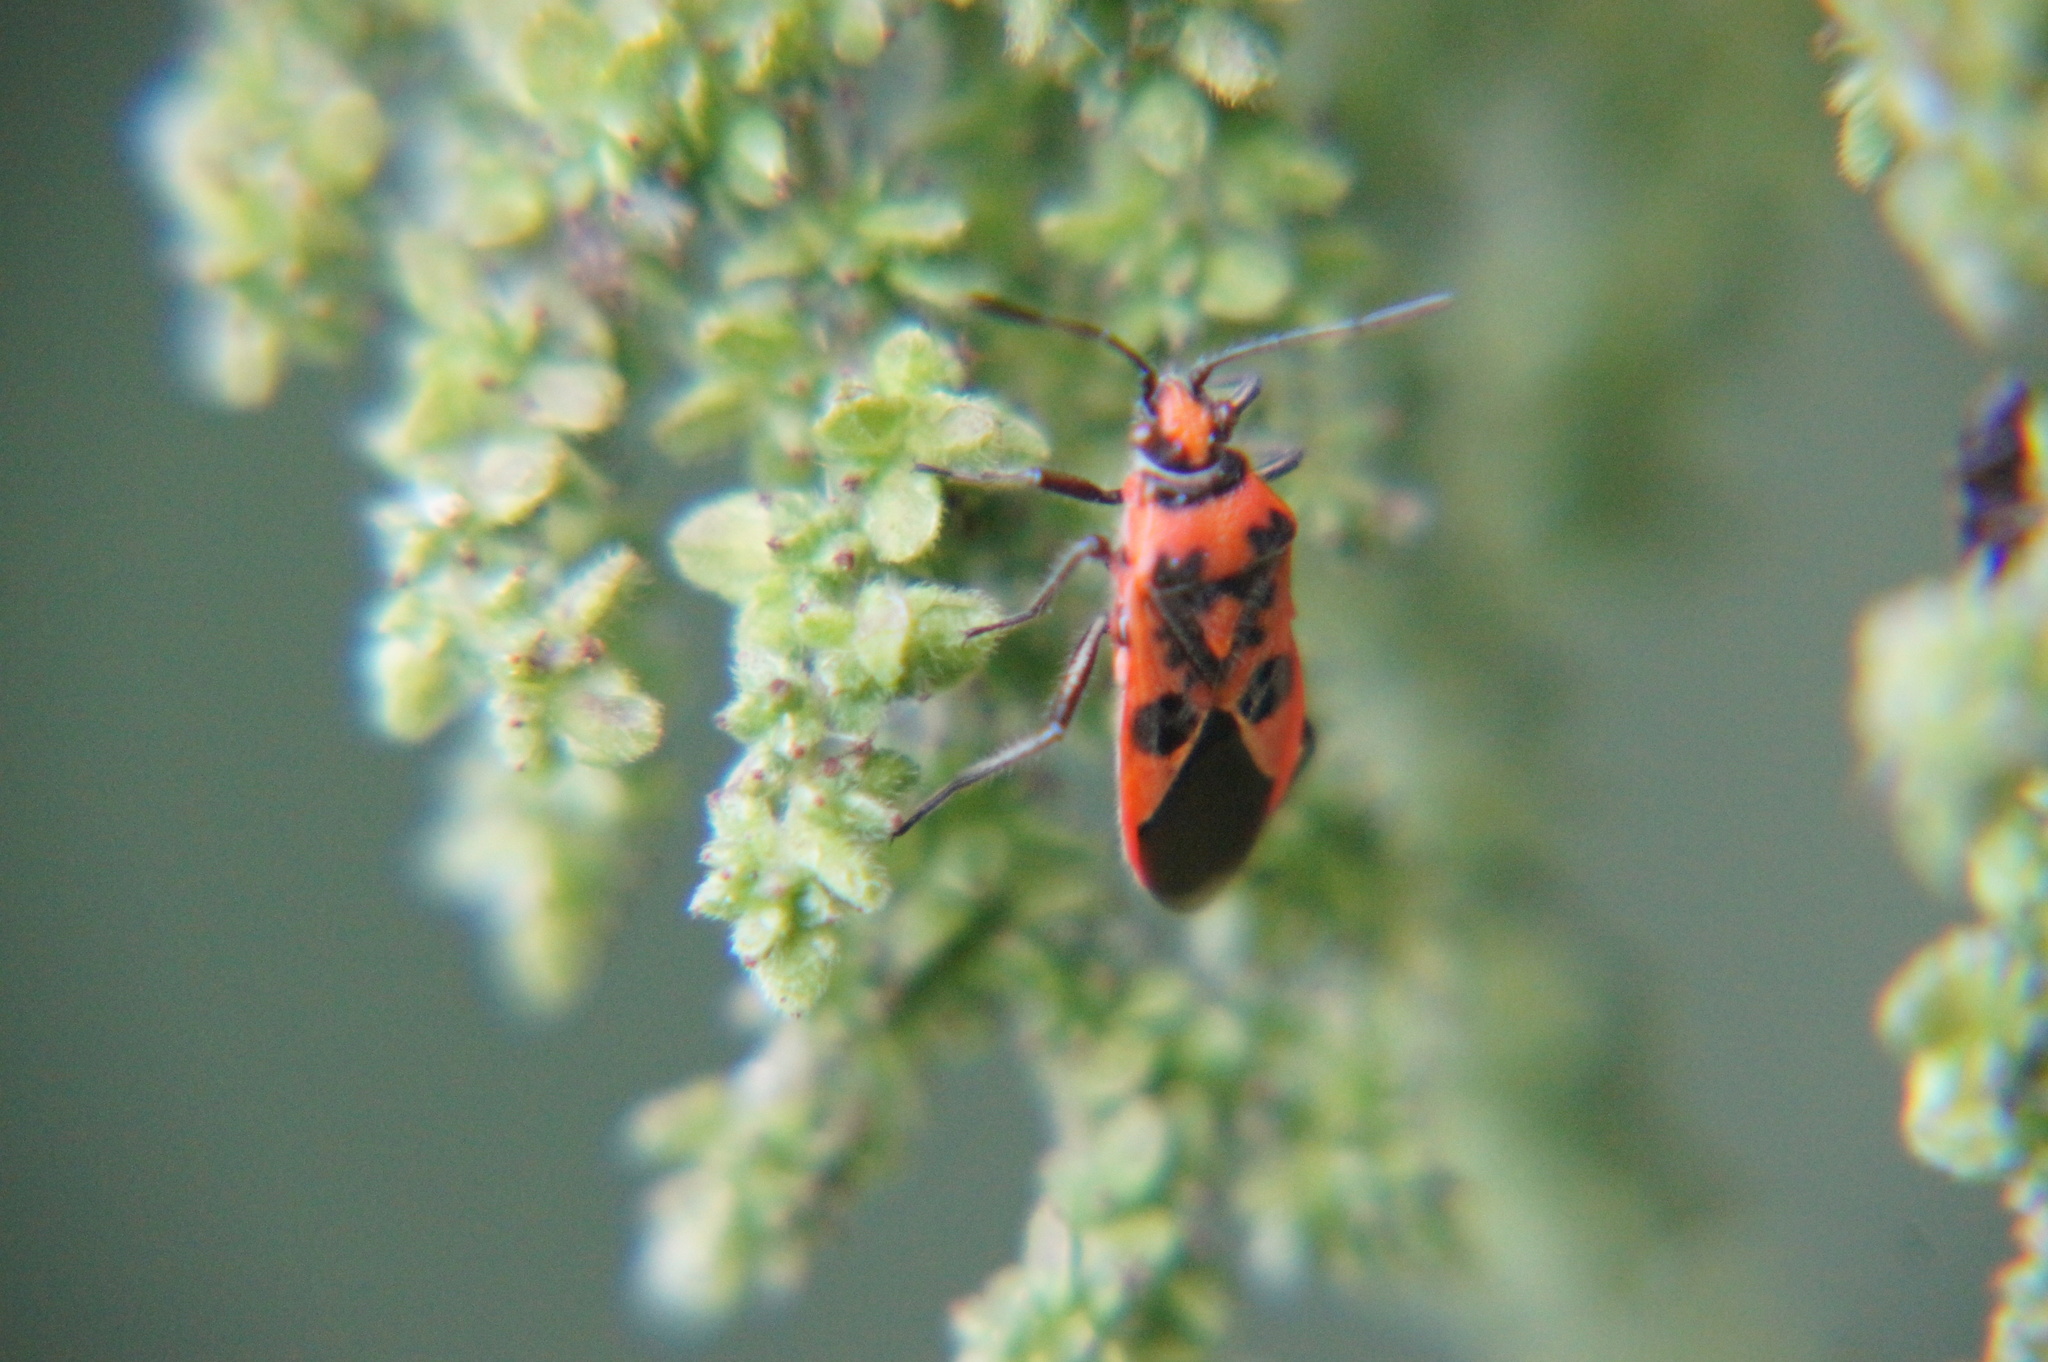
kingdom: Animalia
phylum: Arthropoda
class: Insecta
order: Hemiptera
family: Rhopalidae
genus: Corizus
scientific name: Corizus hyoscyami
